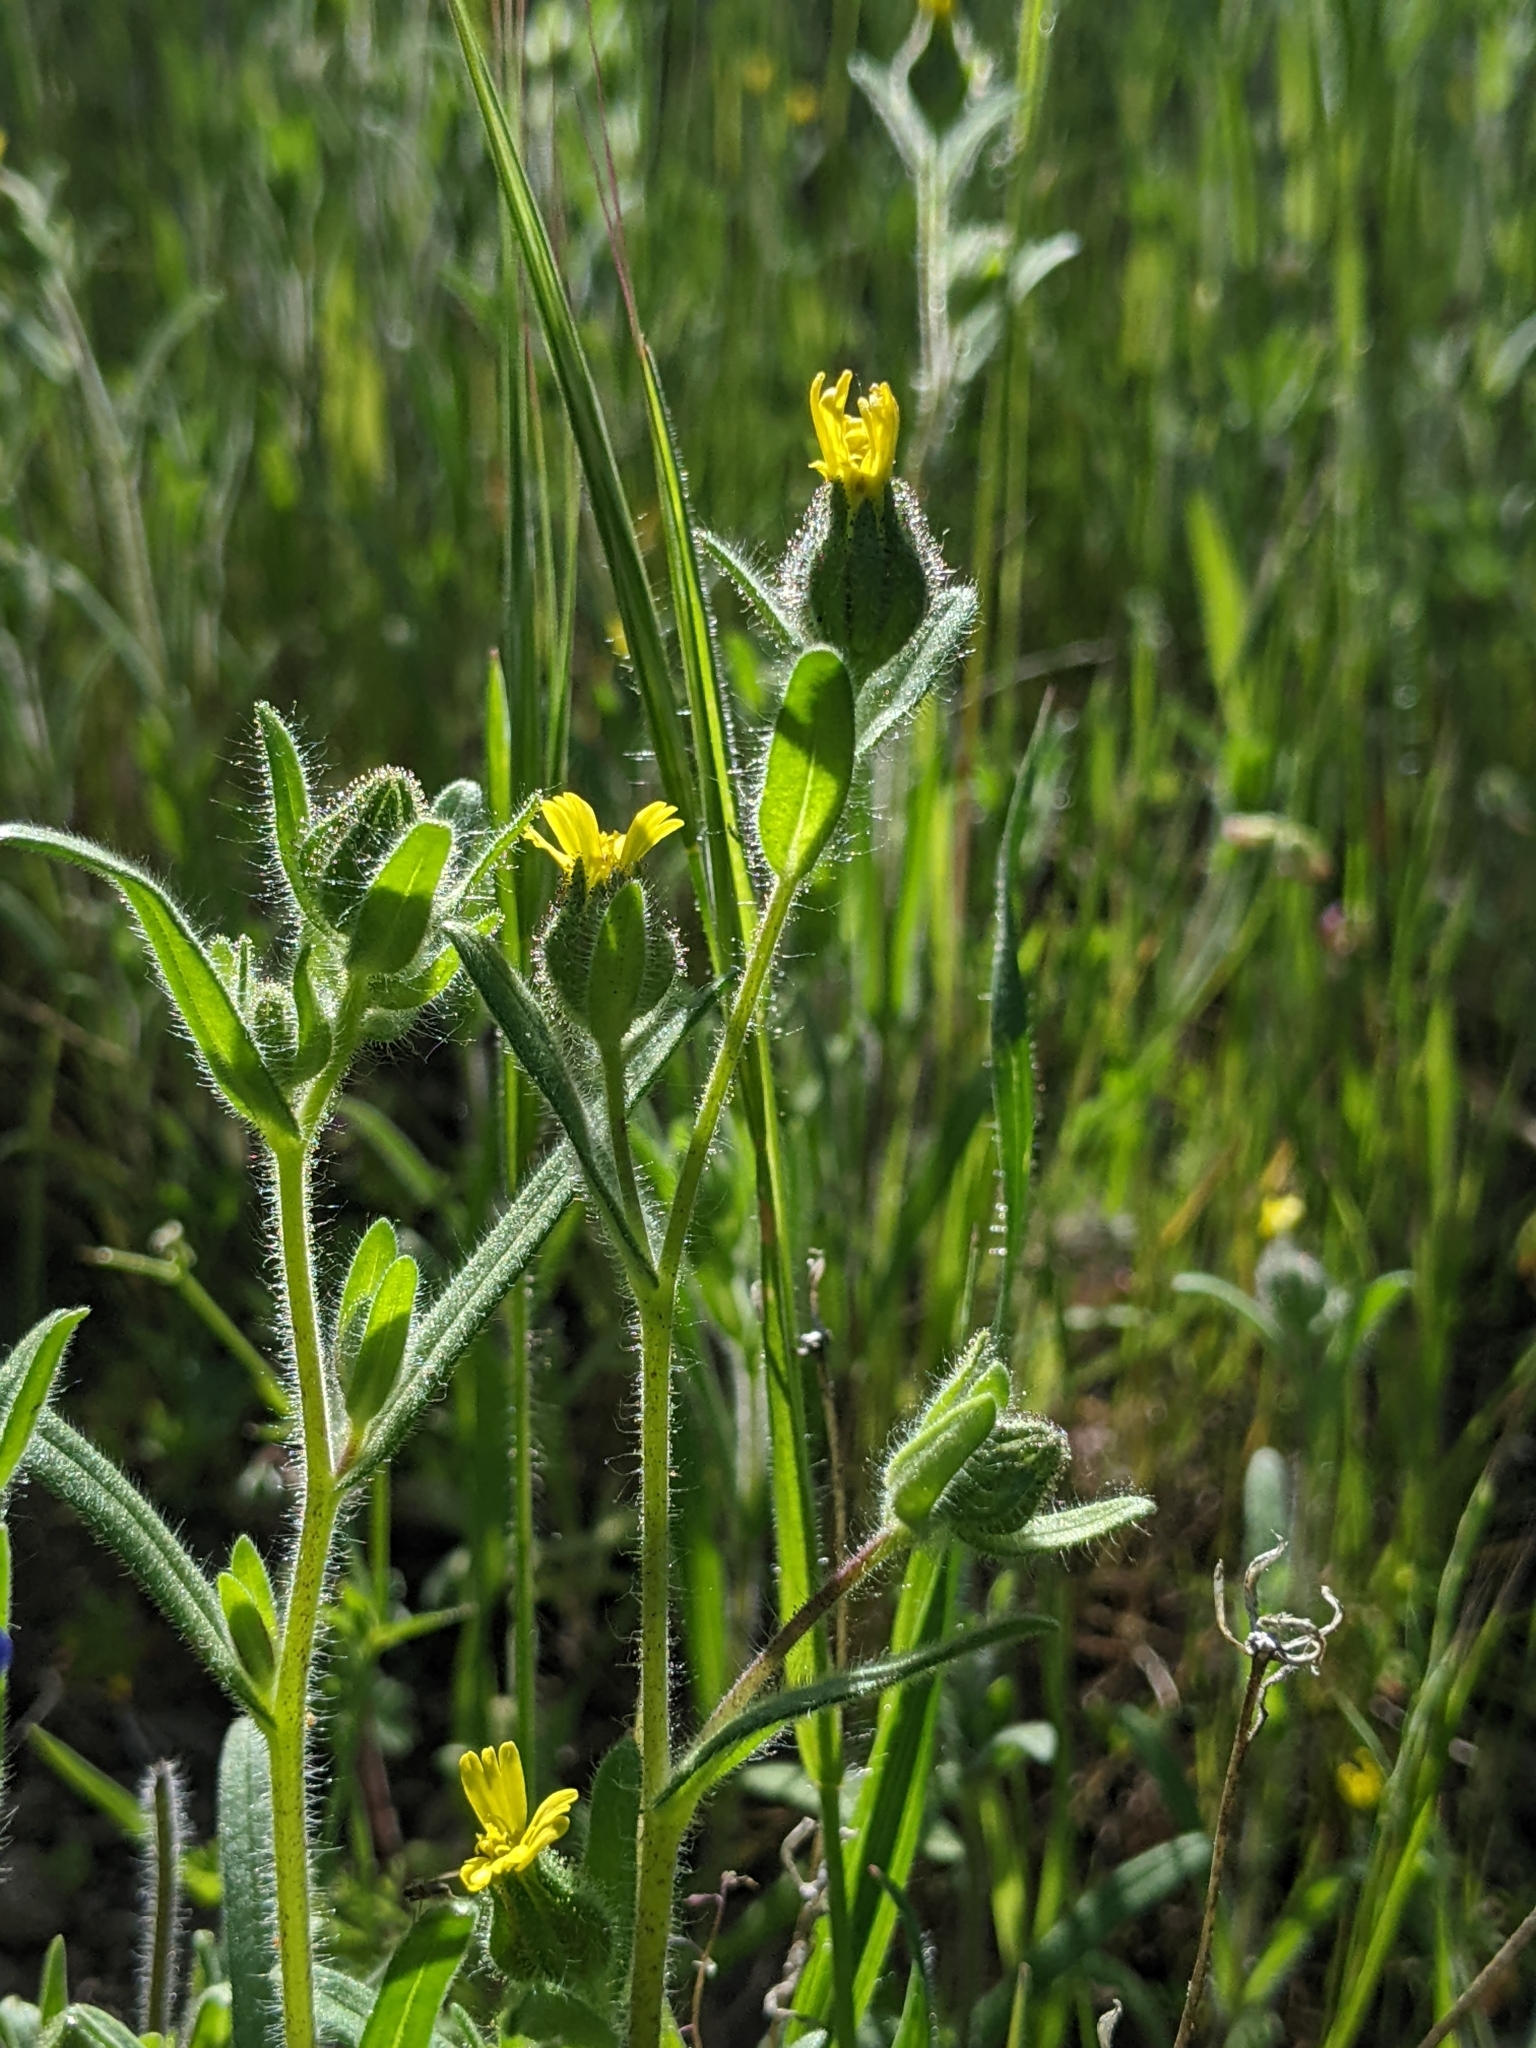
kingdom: Plantae
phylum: Tracheophyta
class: Magnoliopsida
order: Asterales
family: Asteraceae
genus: Madia
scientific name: Madia gracilis
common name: Grassy tarweed
